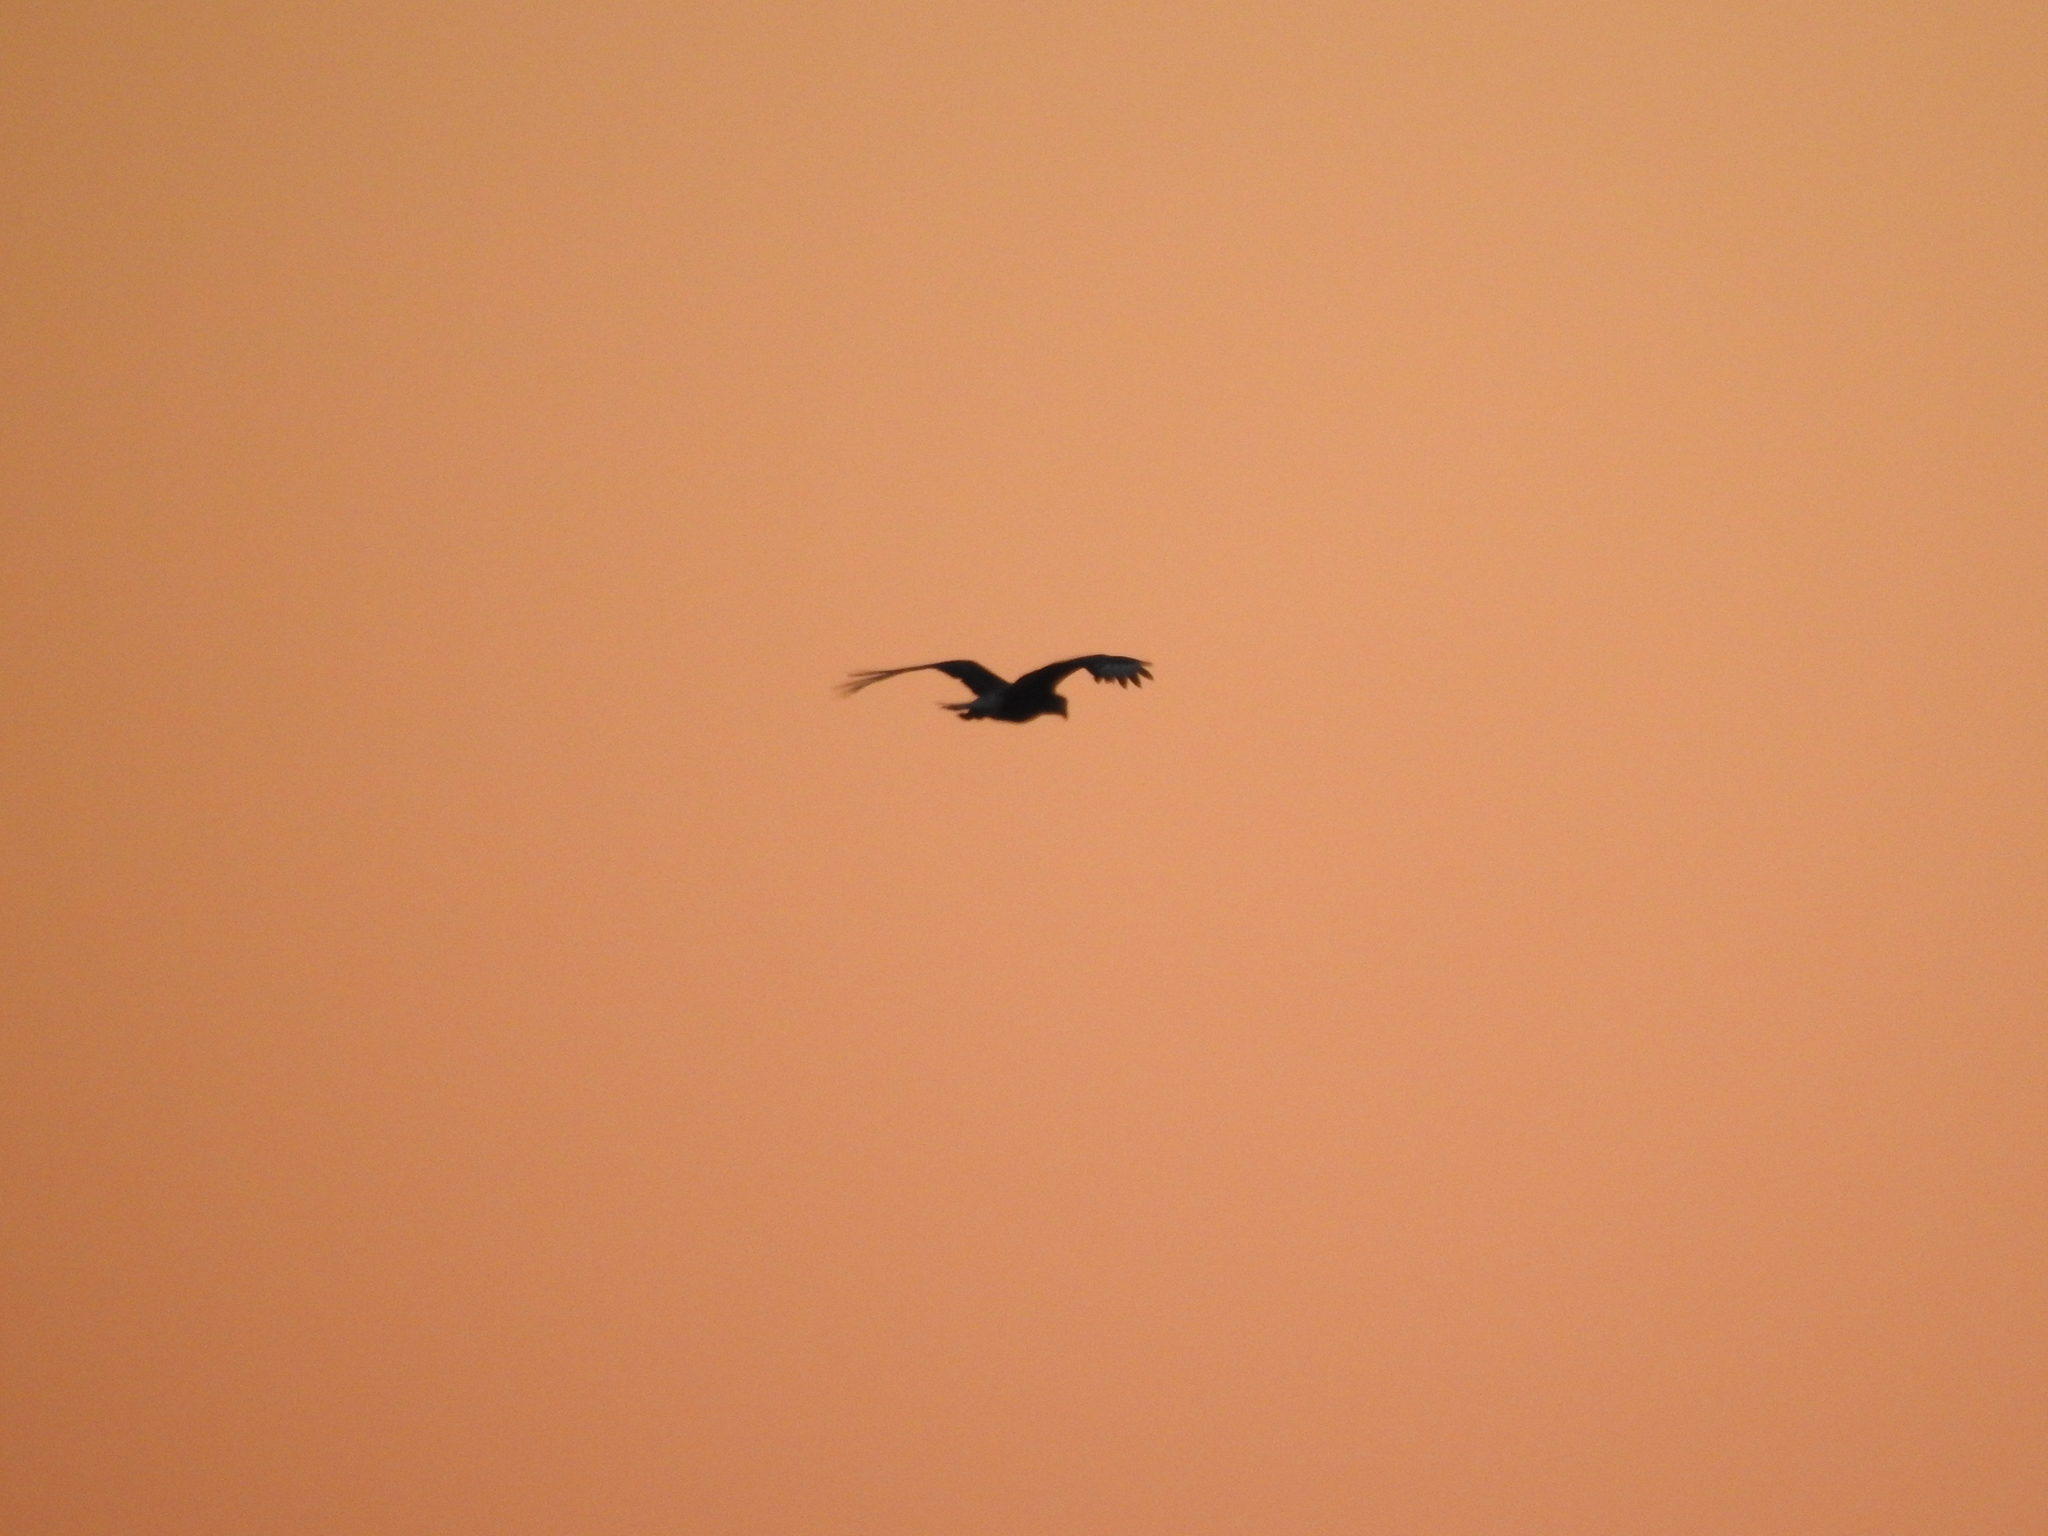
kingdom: Animalia
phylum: Chordata
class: Aves
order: Falconiformes
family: Falconidae
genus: Caracara
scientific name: Caracara plancus
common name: Southern caracara
